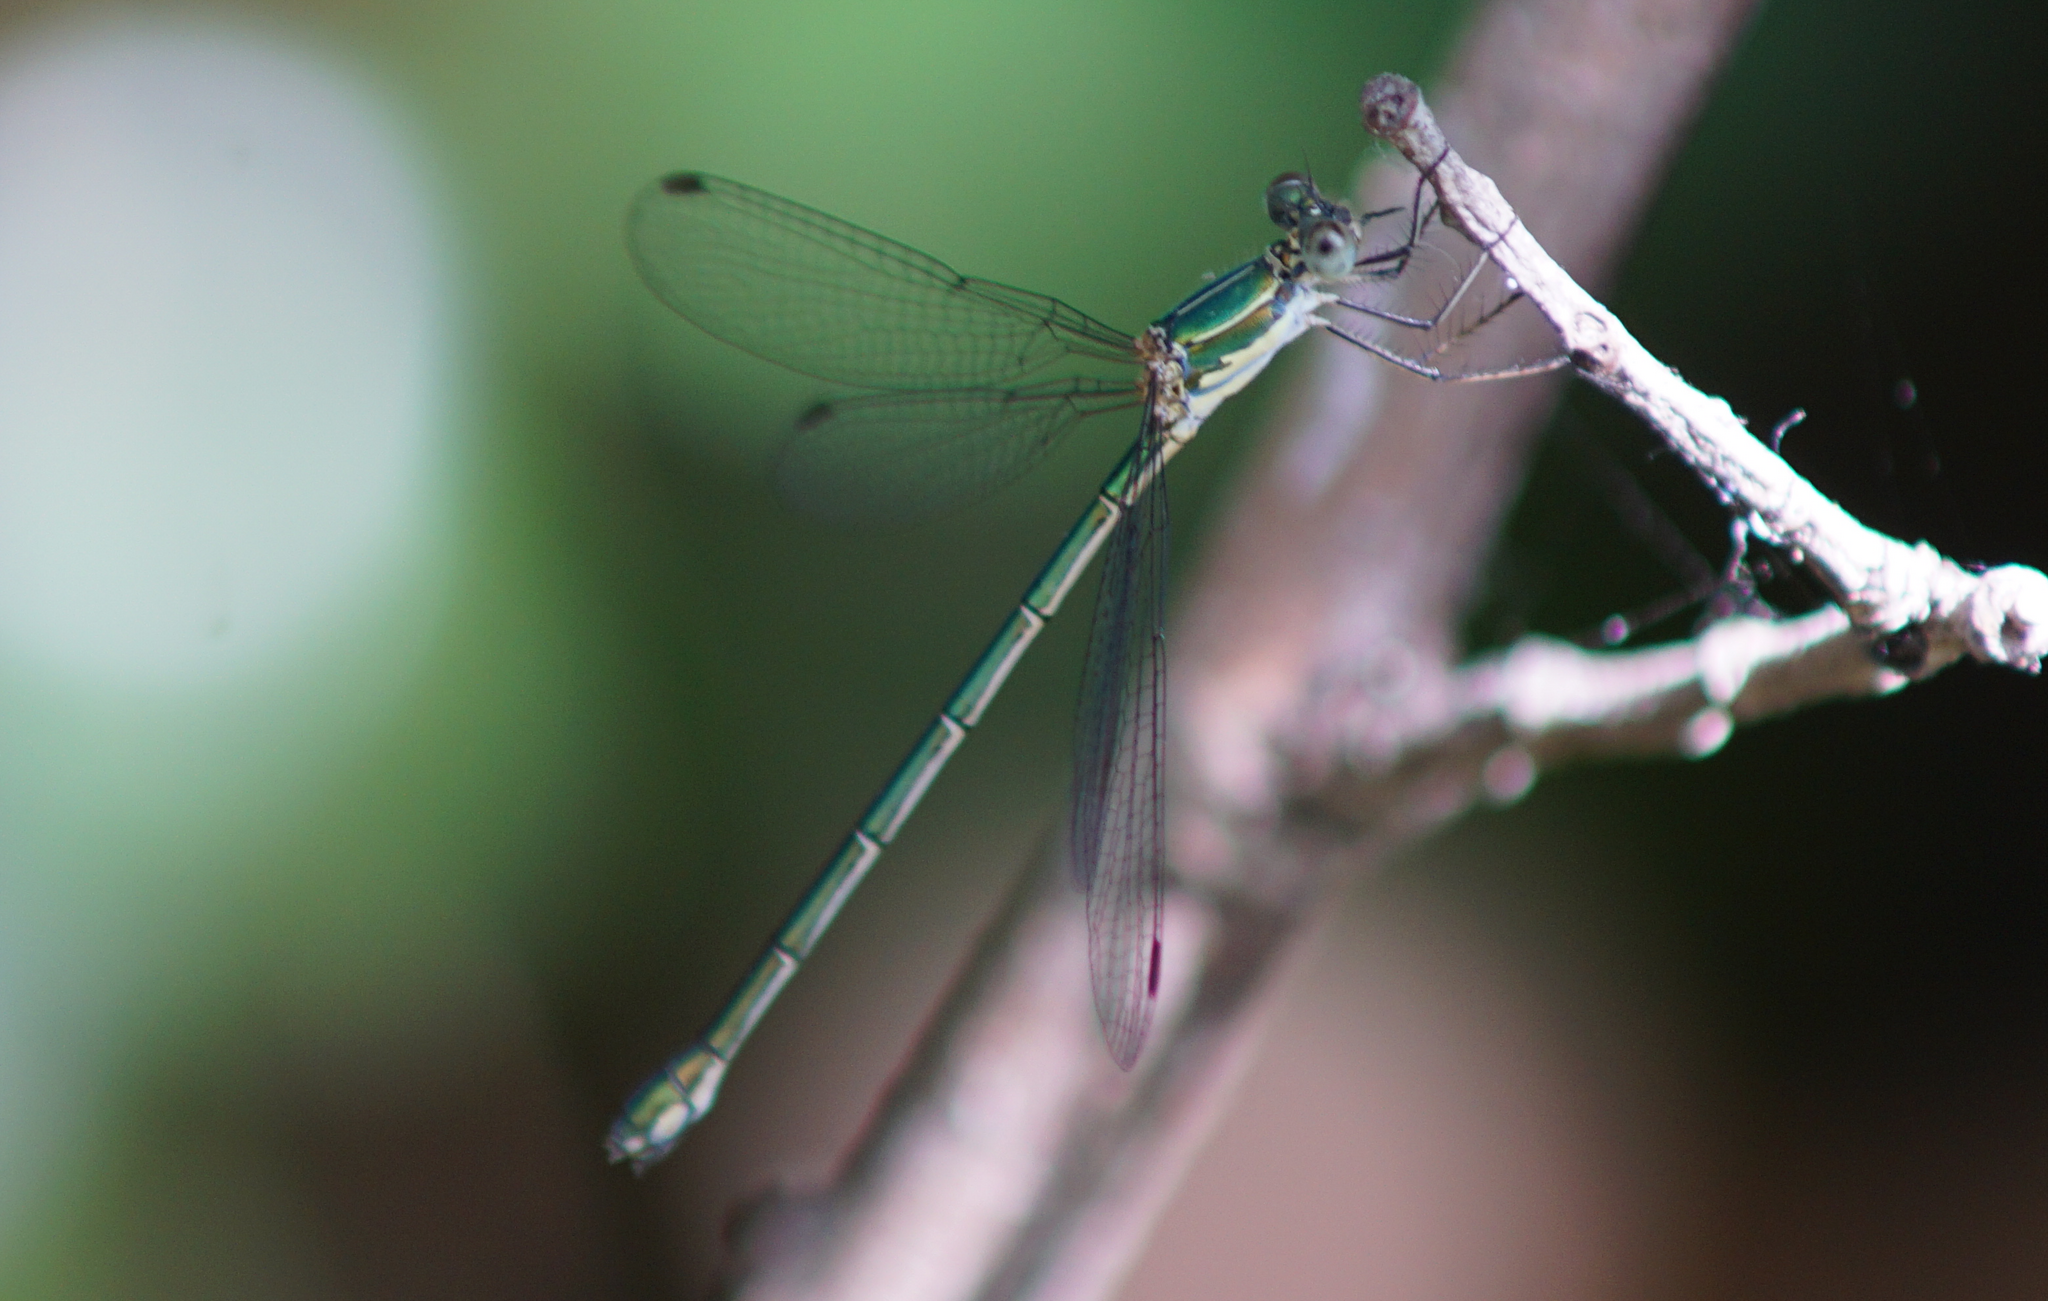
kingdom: Animalia
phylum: Arthropoda
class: Insecta
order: Odonata
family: Lestidae
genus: Chalcolestes
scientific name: Chalcolestes parvidens
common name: Eastern willow spreadwing
